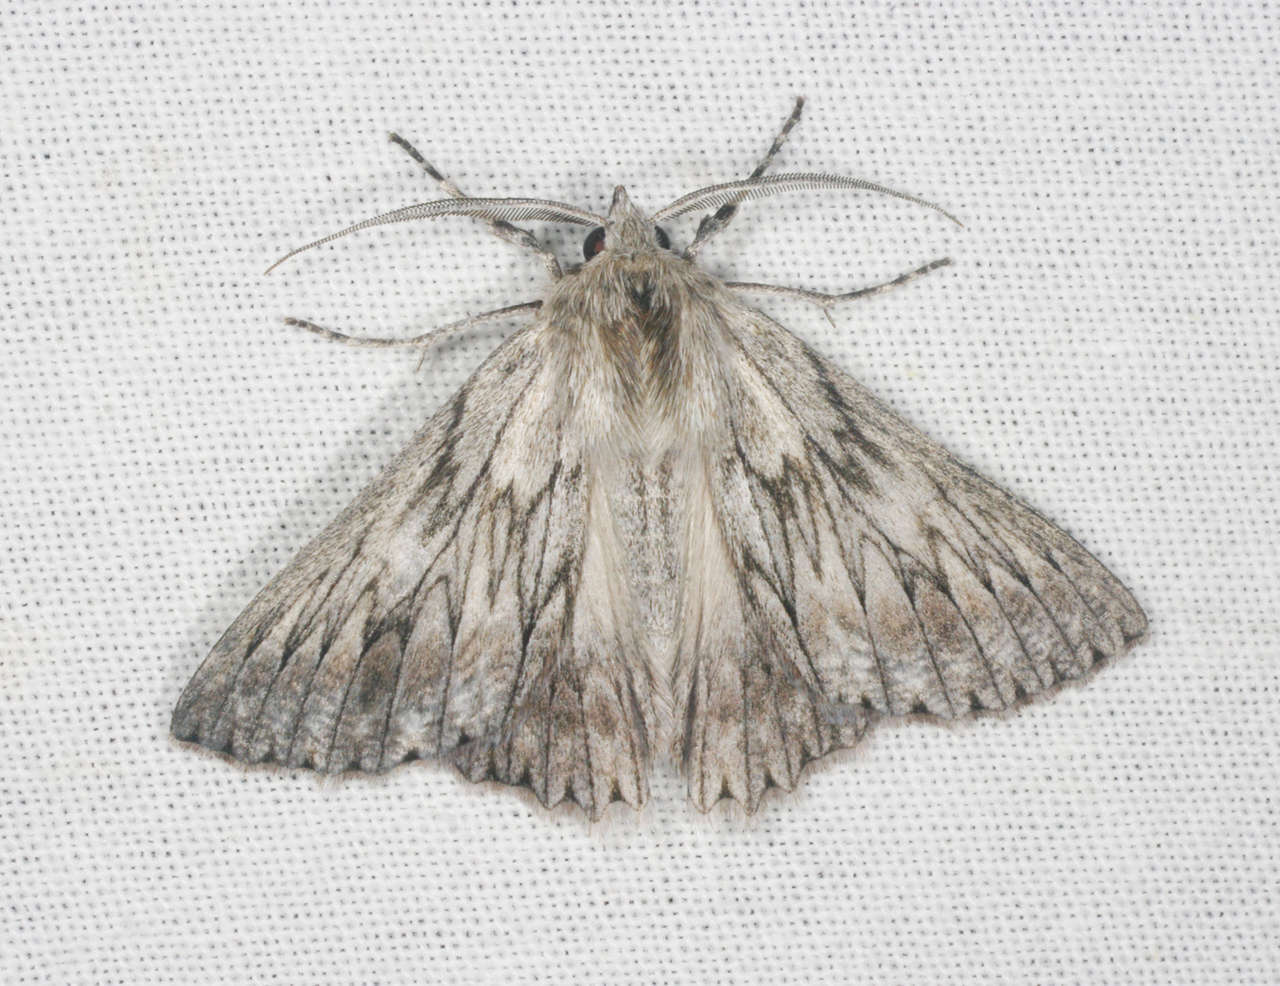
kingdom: Animalia
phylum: Arthropoda
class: Insecta
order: Lepidoptera
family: Geometridae
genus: Cyneoterpna
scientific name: Cyneoterpna wilsoni
